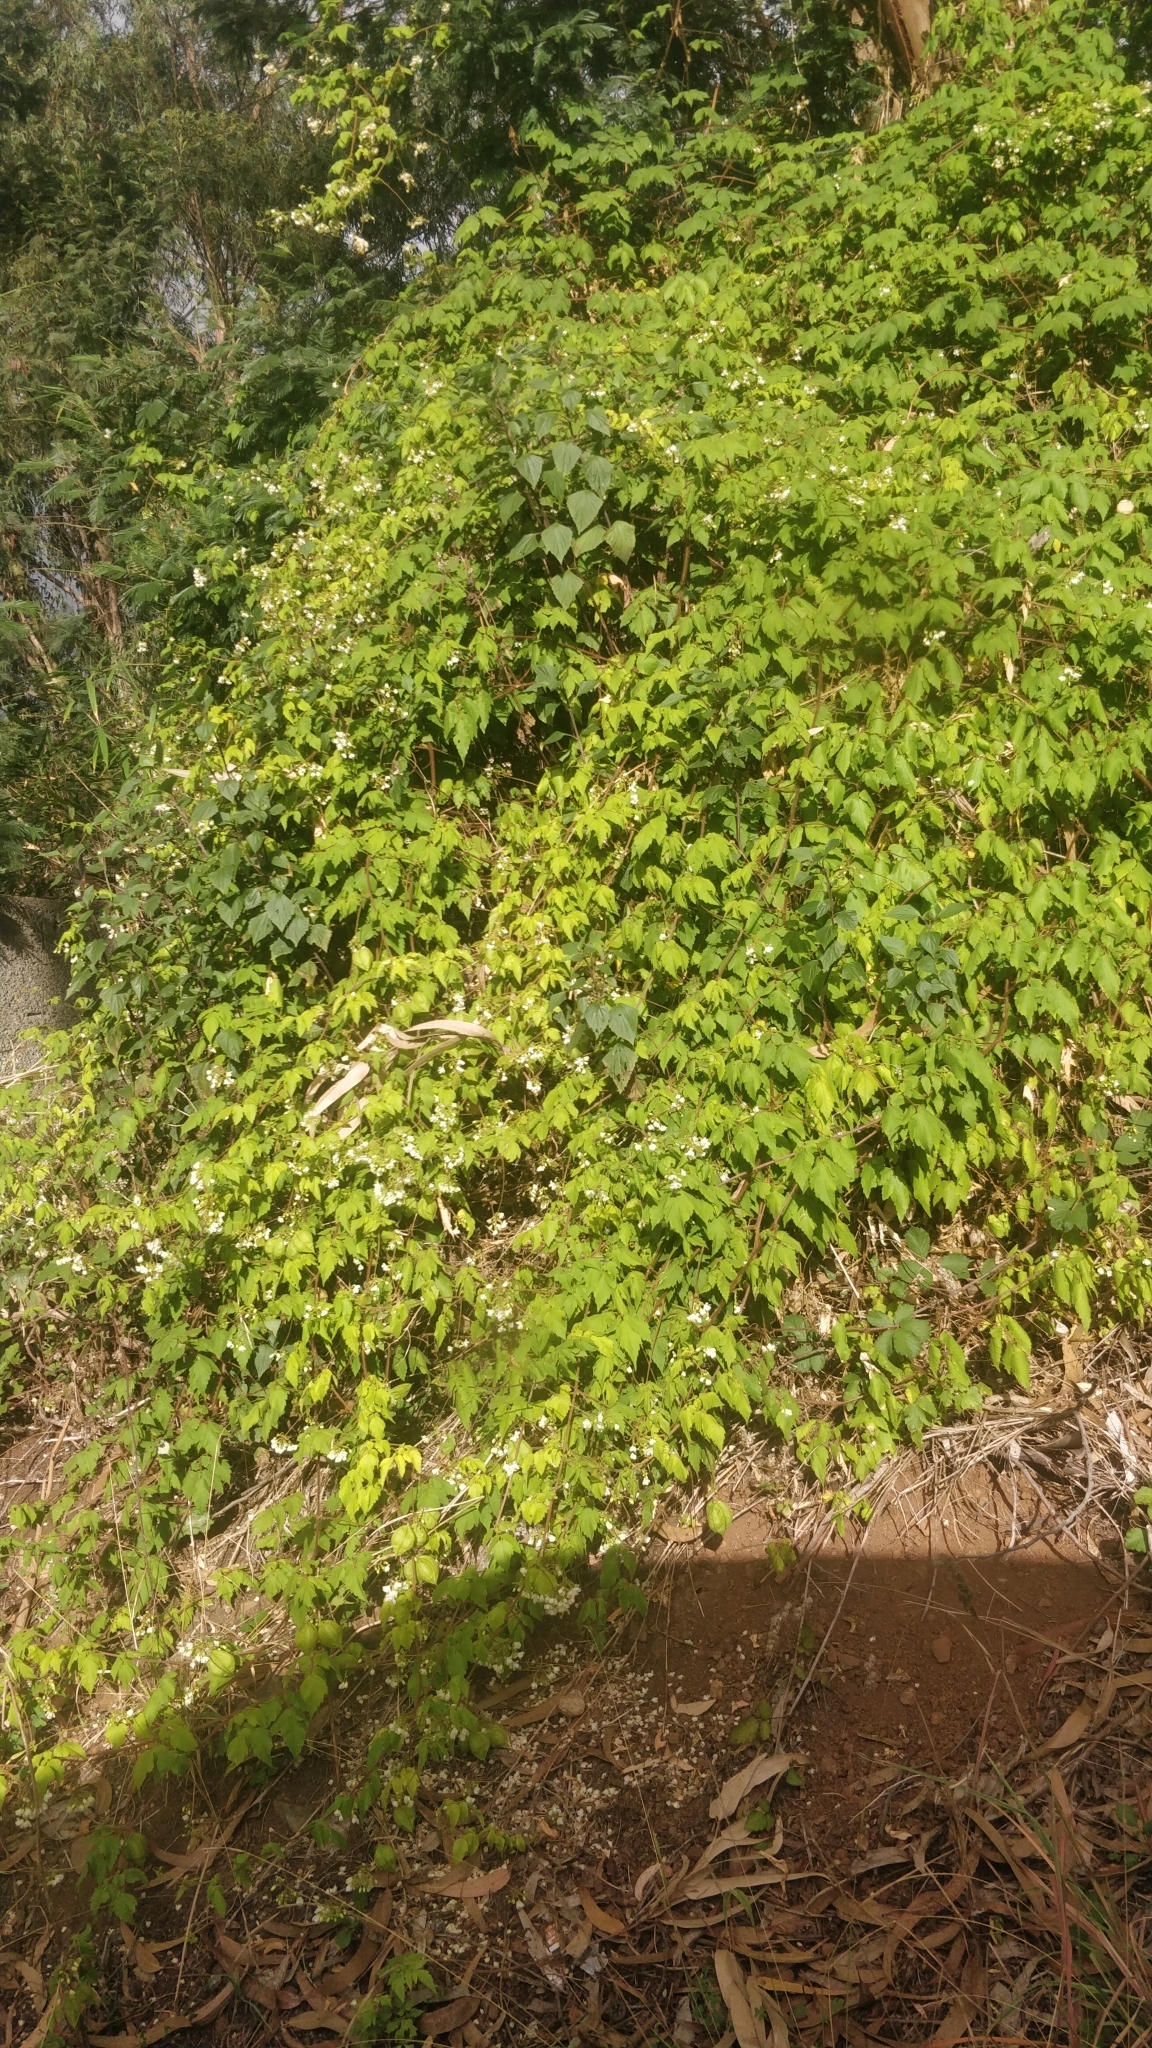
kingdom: Plantae
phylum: Tracheophyta
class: Magnoliopsida
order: Sapindales
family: Sapindaceae
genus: Cardiospermum
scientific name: Cardiospermum grandiflorum
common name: Balloon vine
